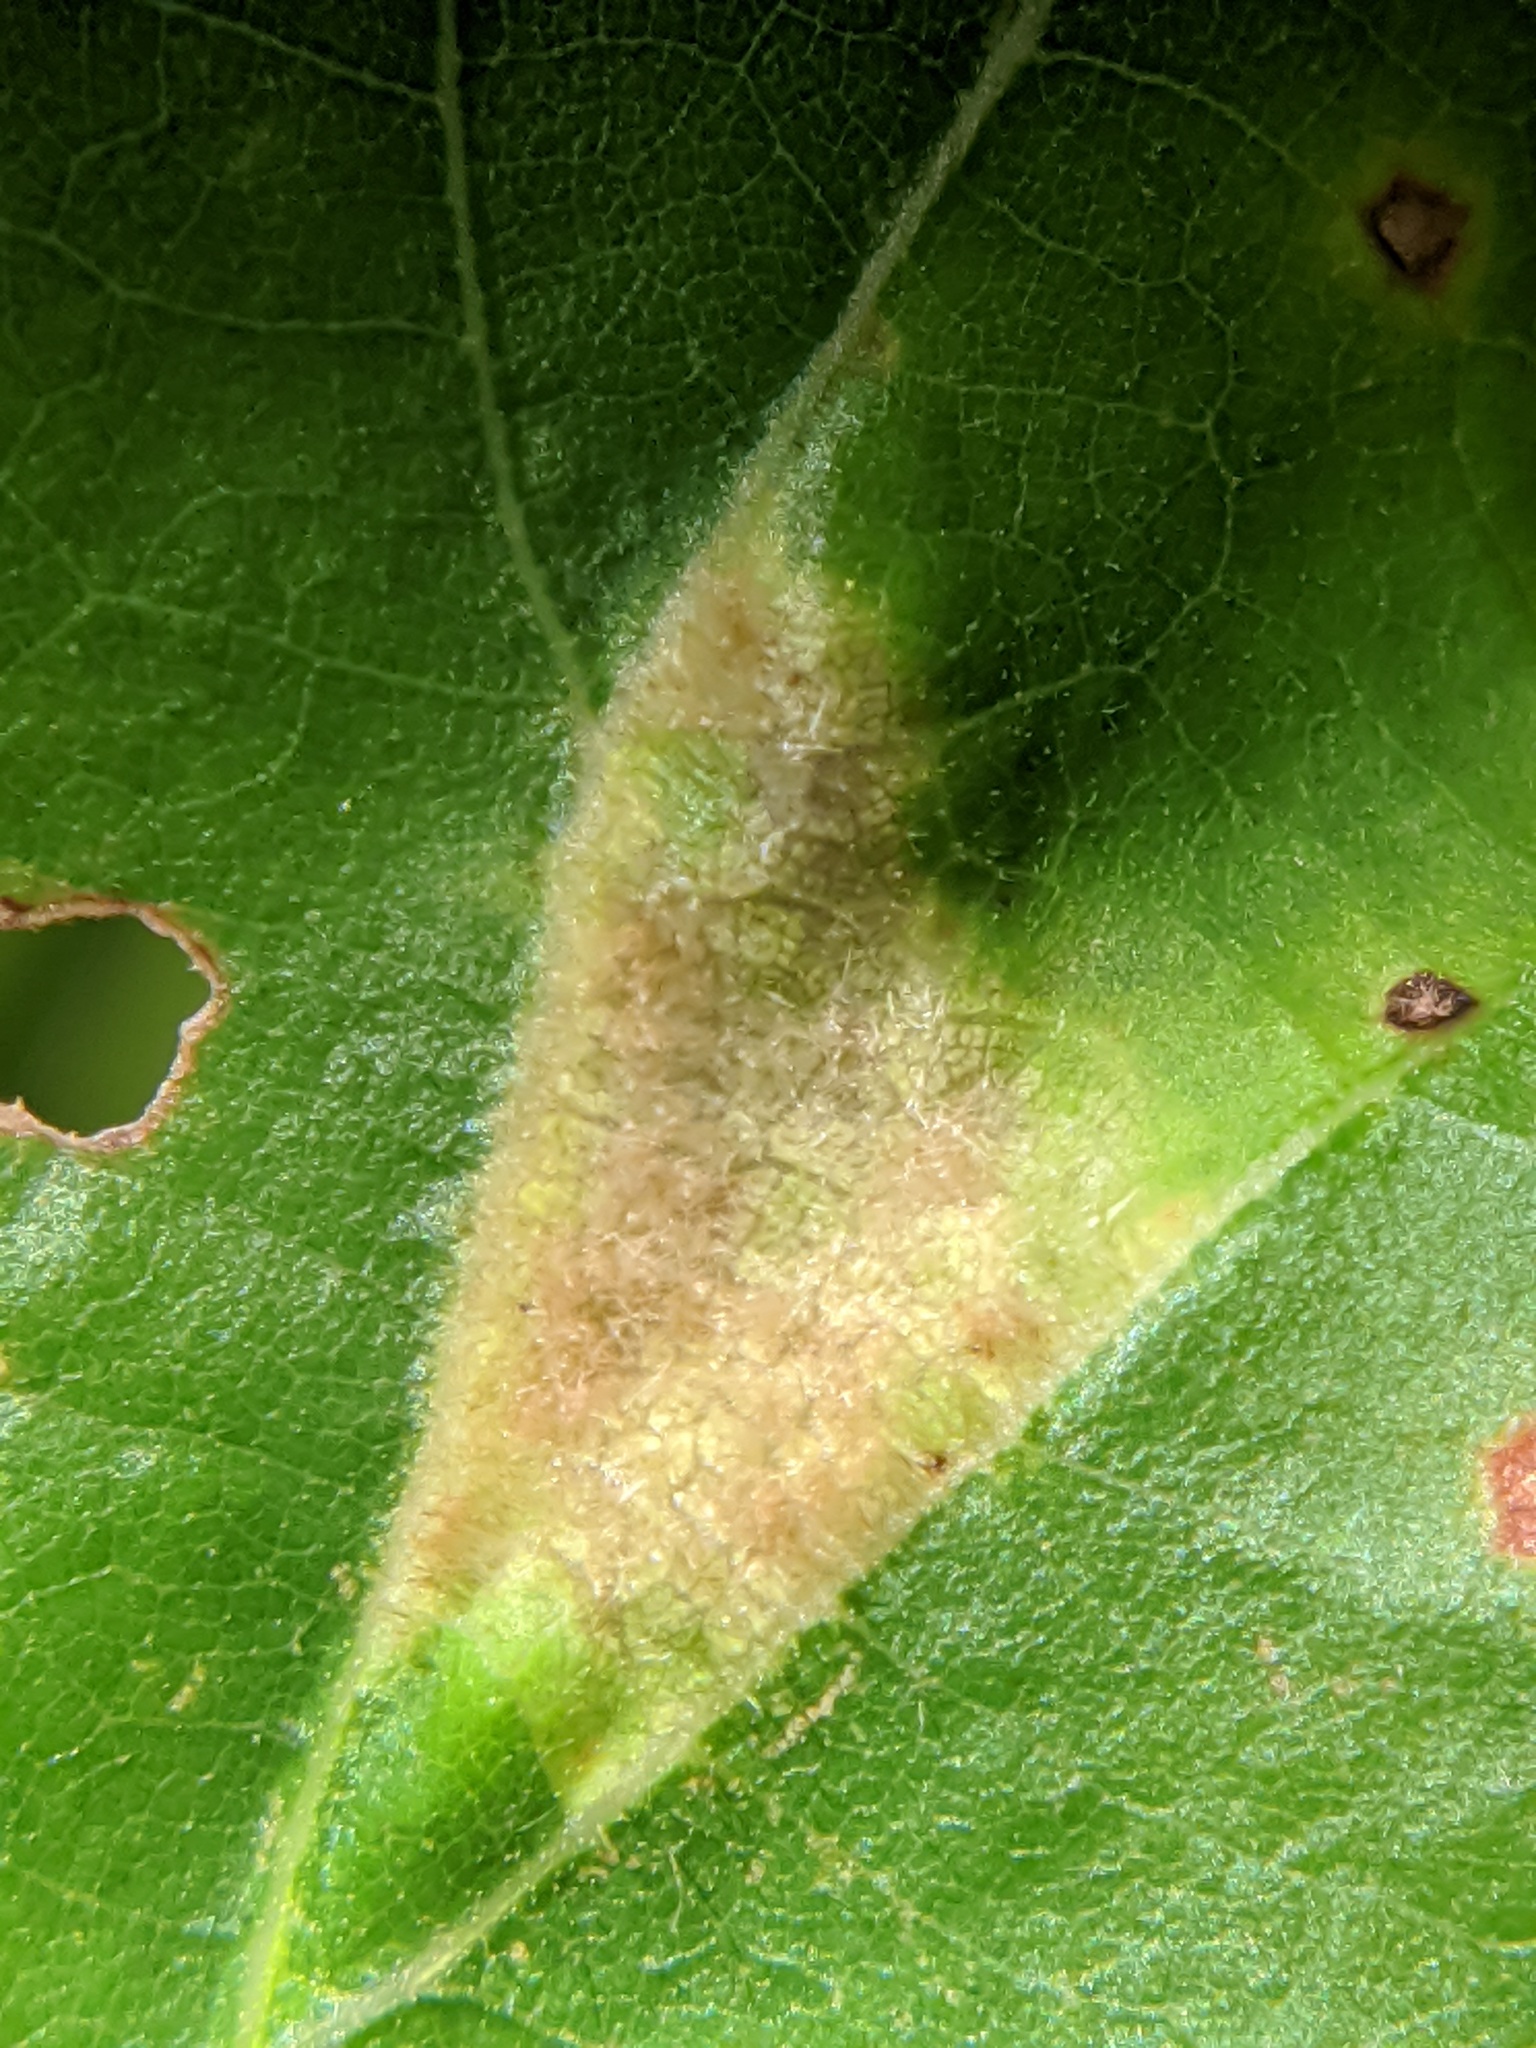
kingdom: Animalia
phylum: Arthropoda
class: Arachnida
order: Trombidiformes
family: Eriophyidae
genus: Aceria
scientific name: Aceria quercina
